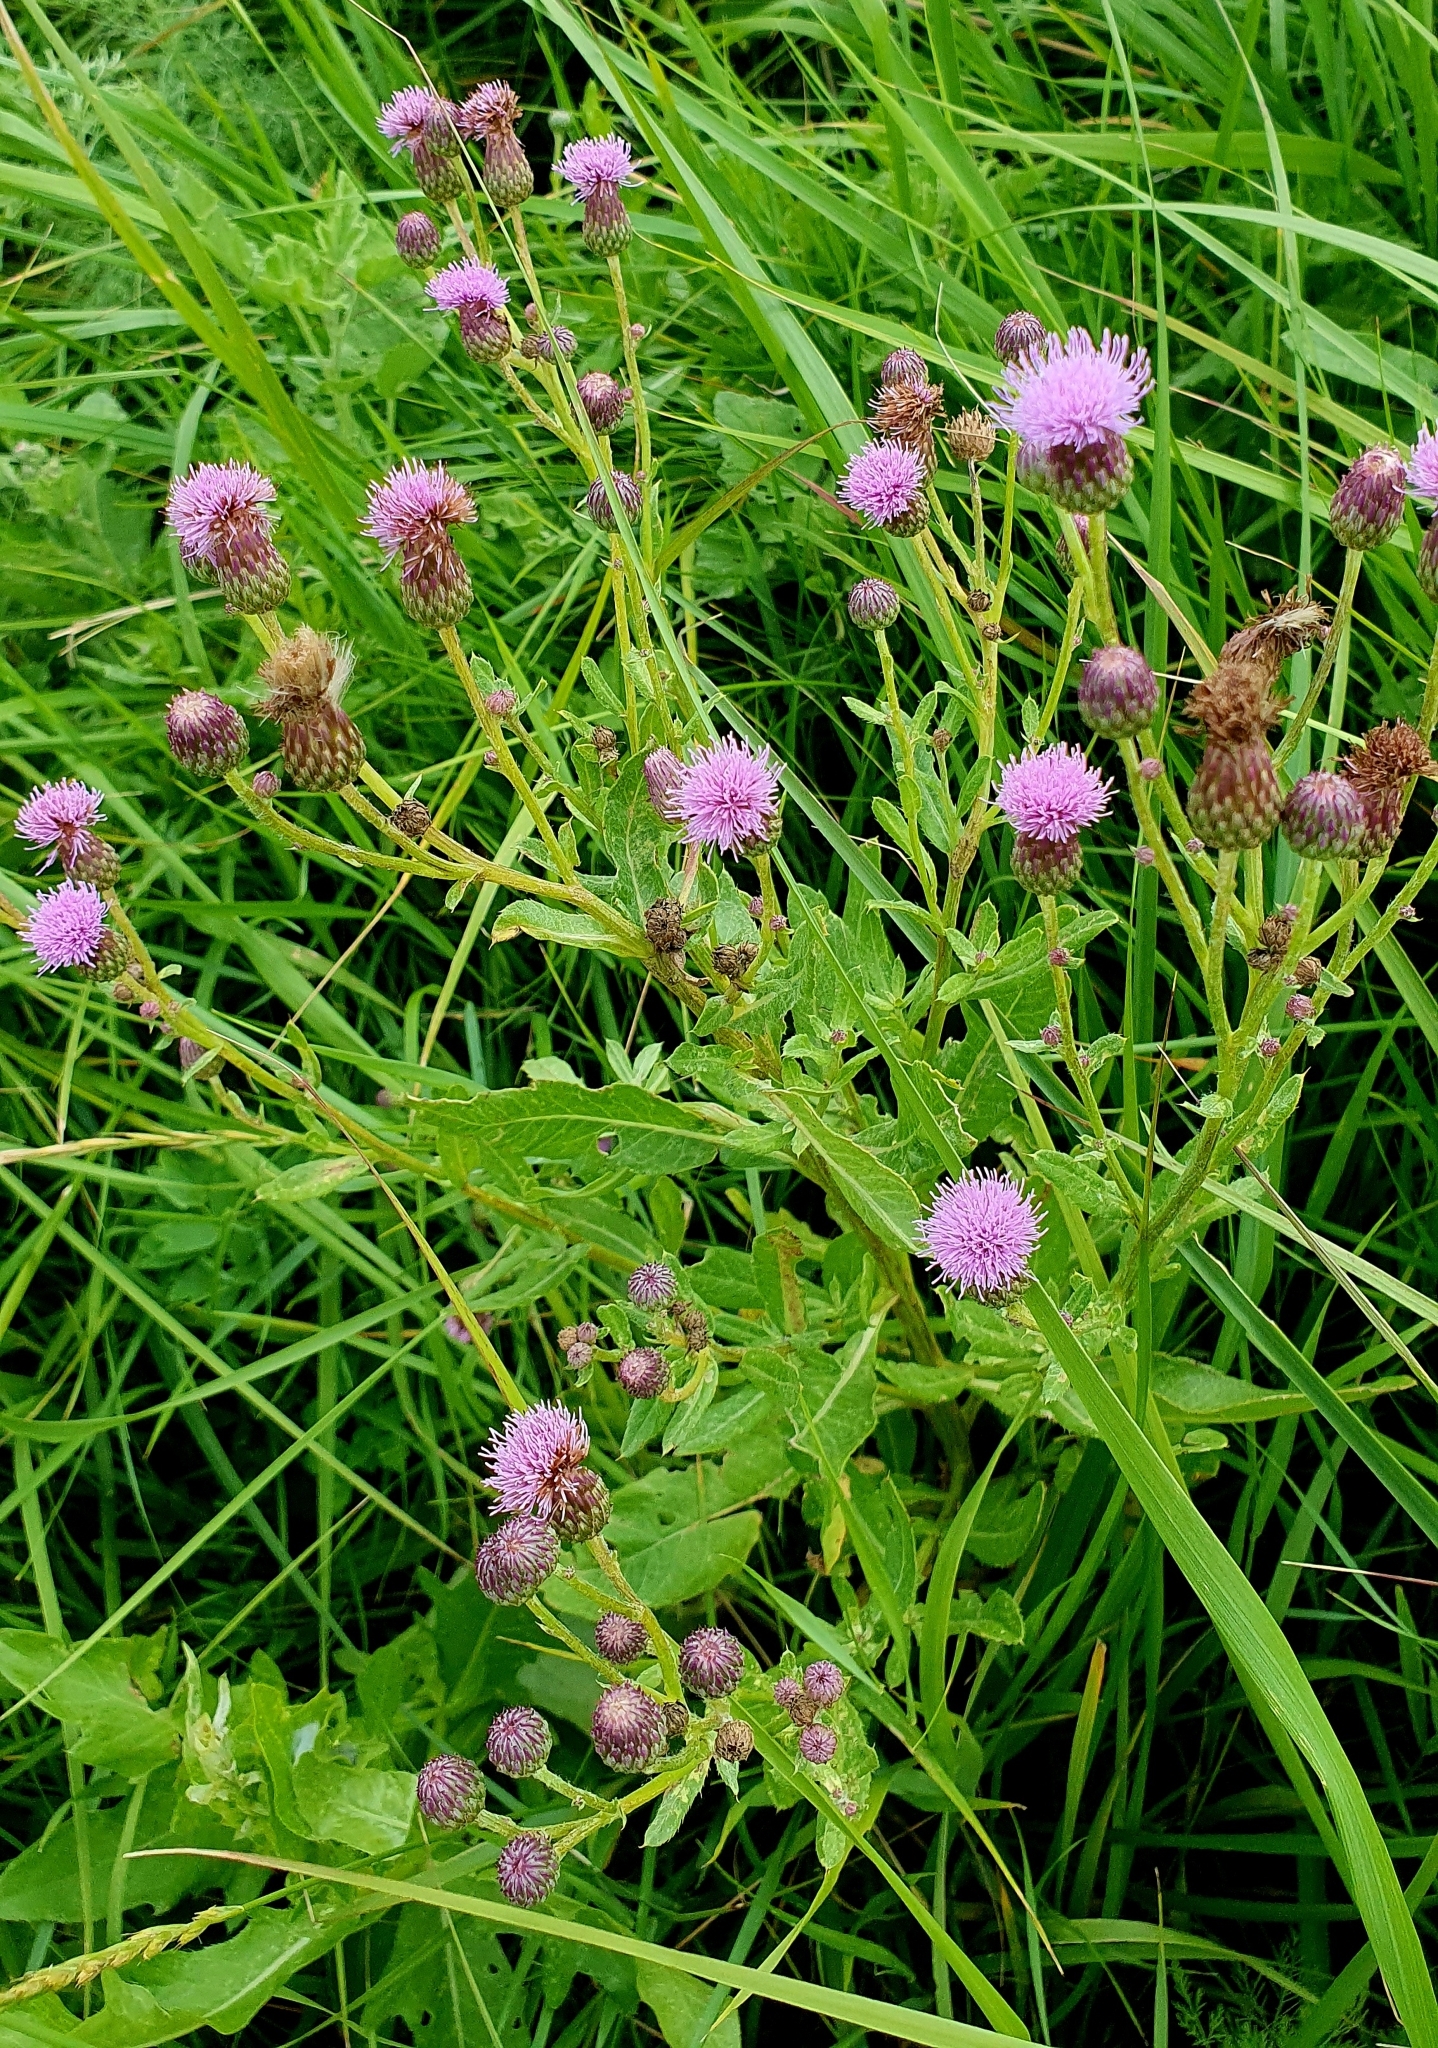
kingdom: Plantae
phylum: Tracheophyta
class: Magnoliopsida
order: Asterales
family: Asteraceae
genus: Cirsium
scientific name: Cirsium arvense
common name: Creeping thistle
